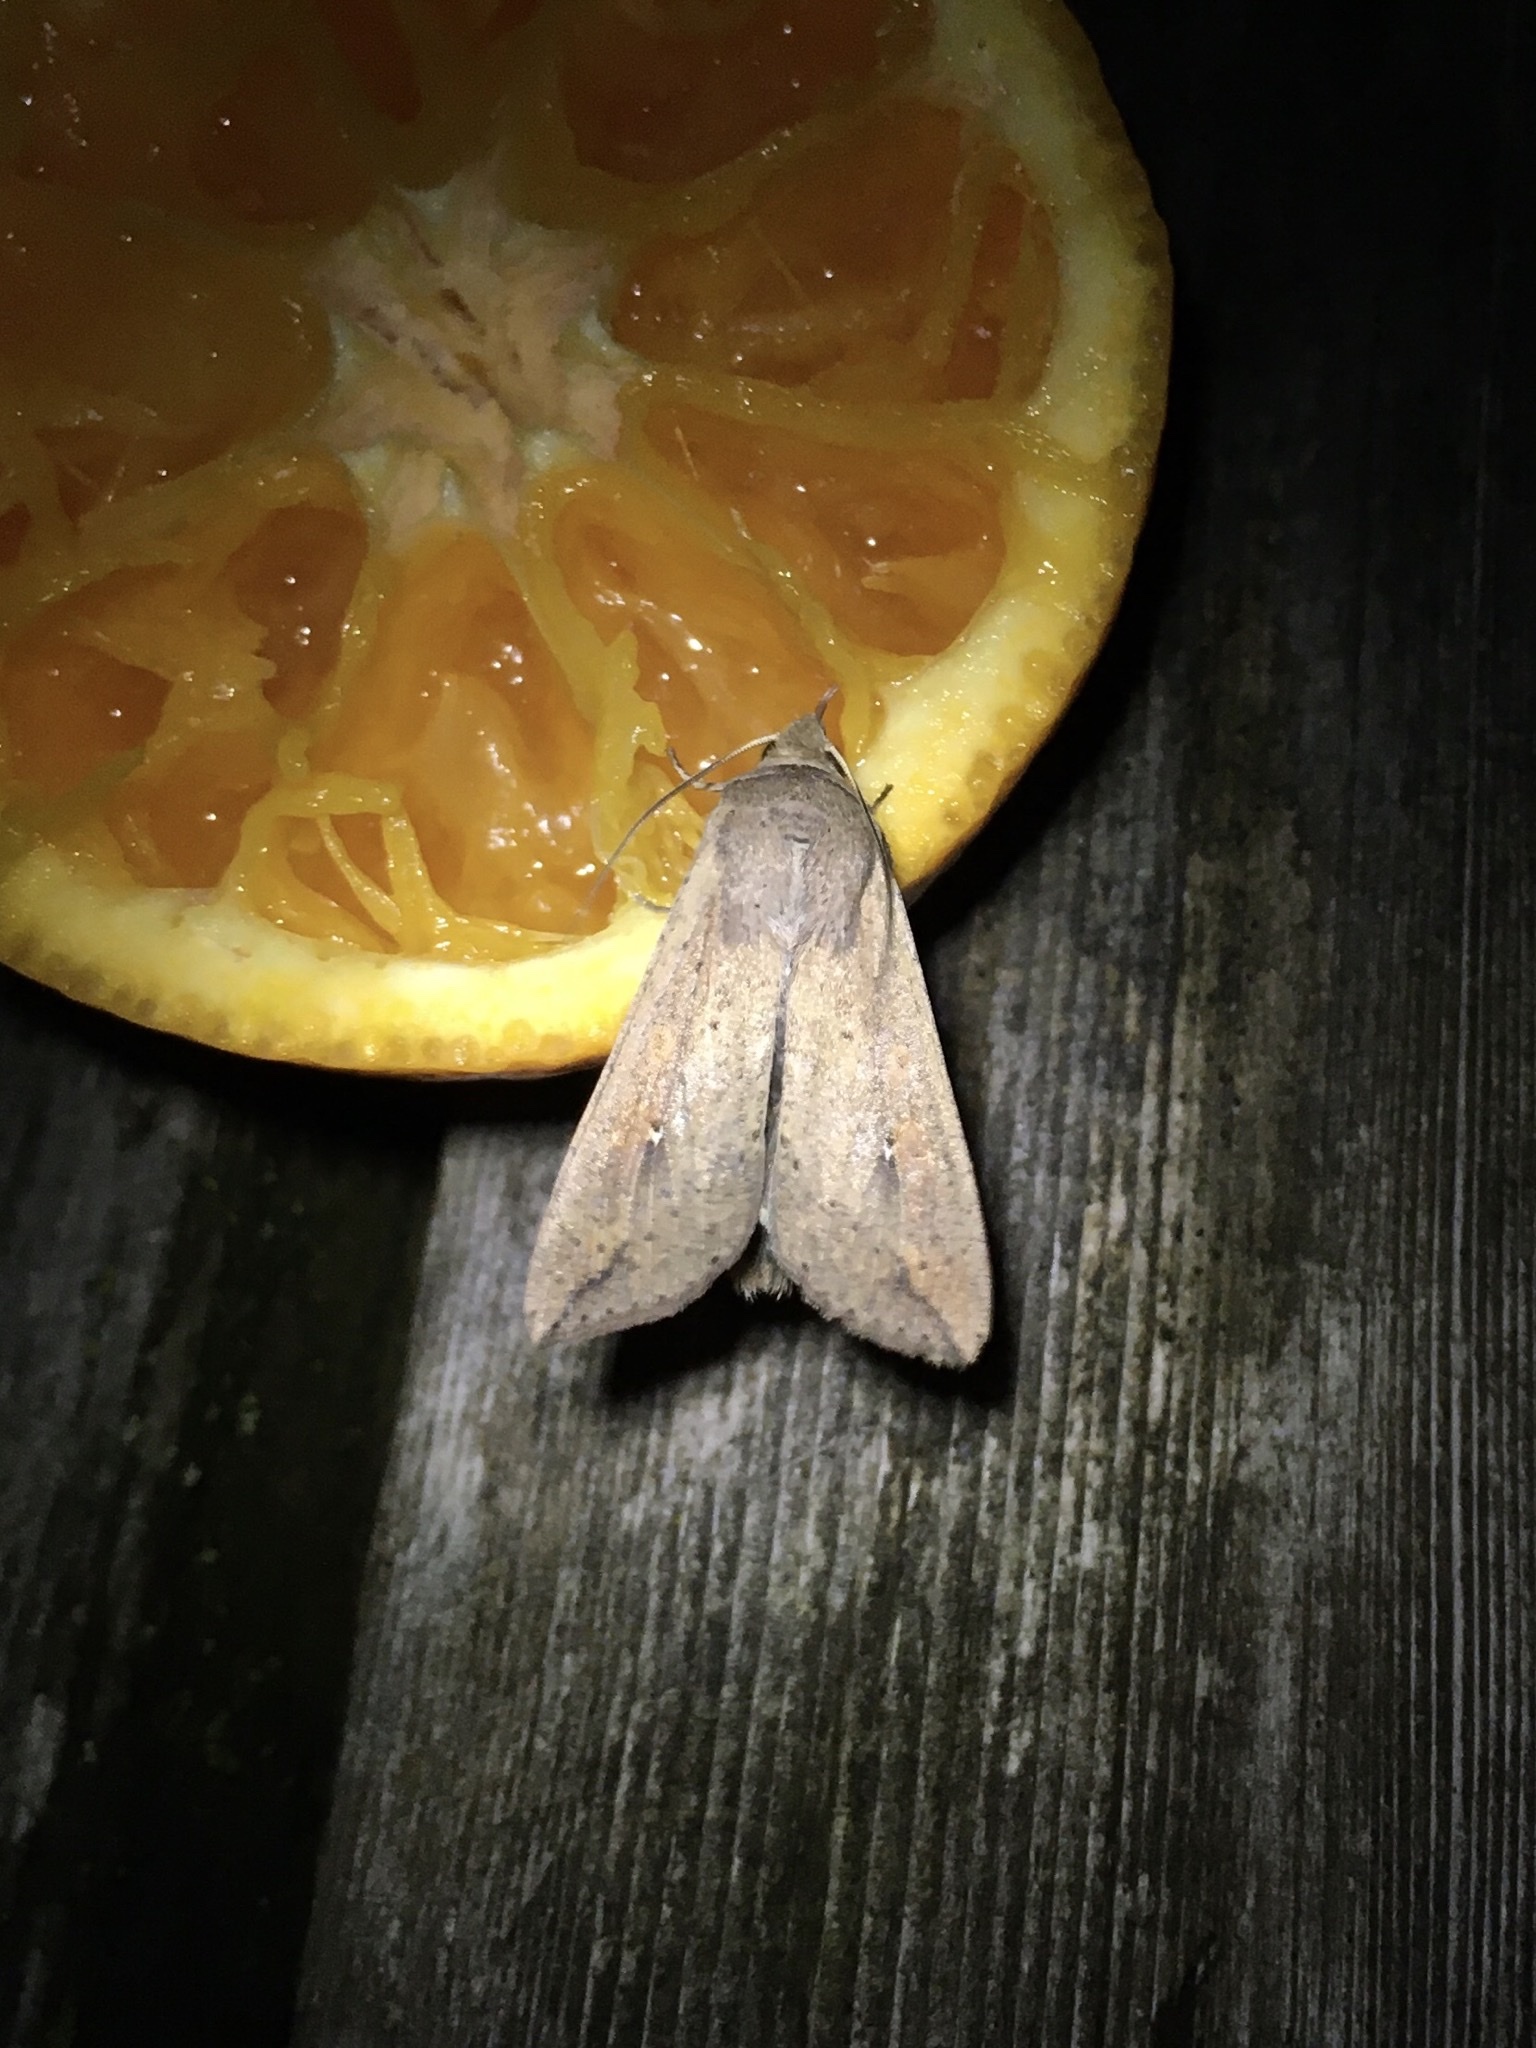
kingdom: Animalia
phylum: Arthropoda
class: Insecta
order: Lepidoptera
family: Noctuidae
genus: Mythimna
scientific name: Mythimna unipuncta
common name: White-speck
